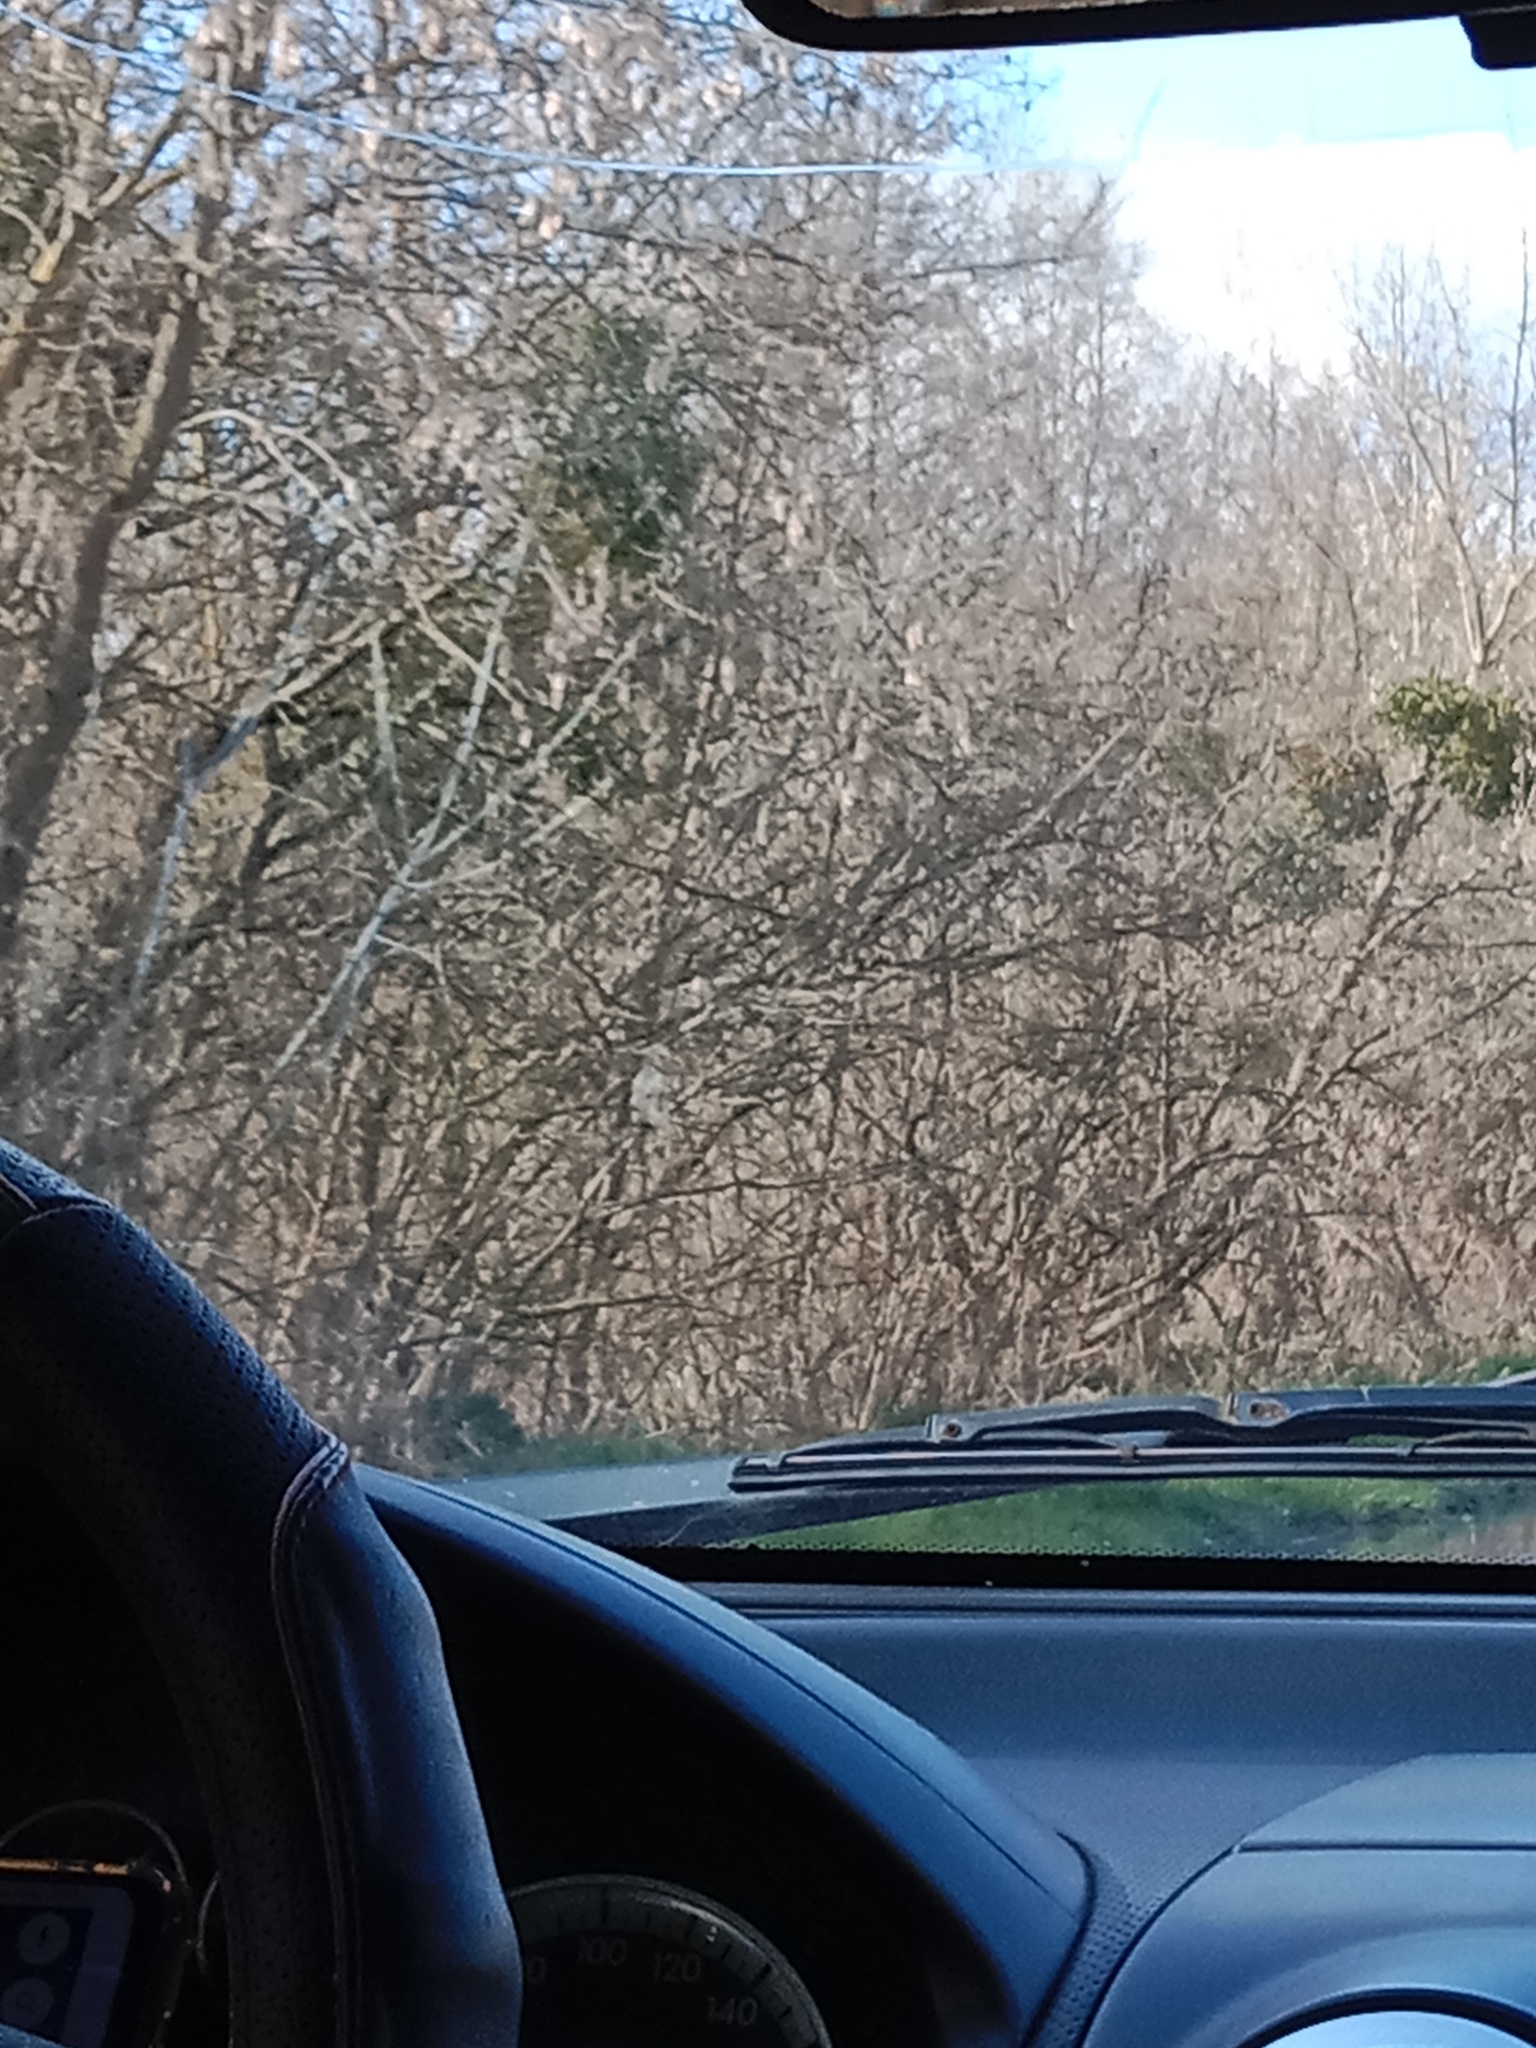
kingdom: Plantae
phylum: Tracheophyta
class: Magnoliopsida
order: Santalales
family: Viscaceae
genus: Viscum
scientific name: Viscum album
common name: Mistletoe
